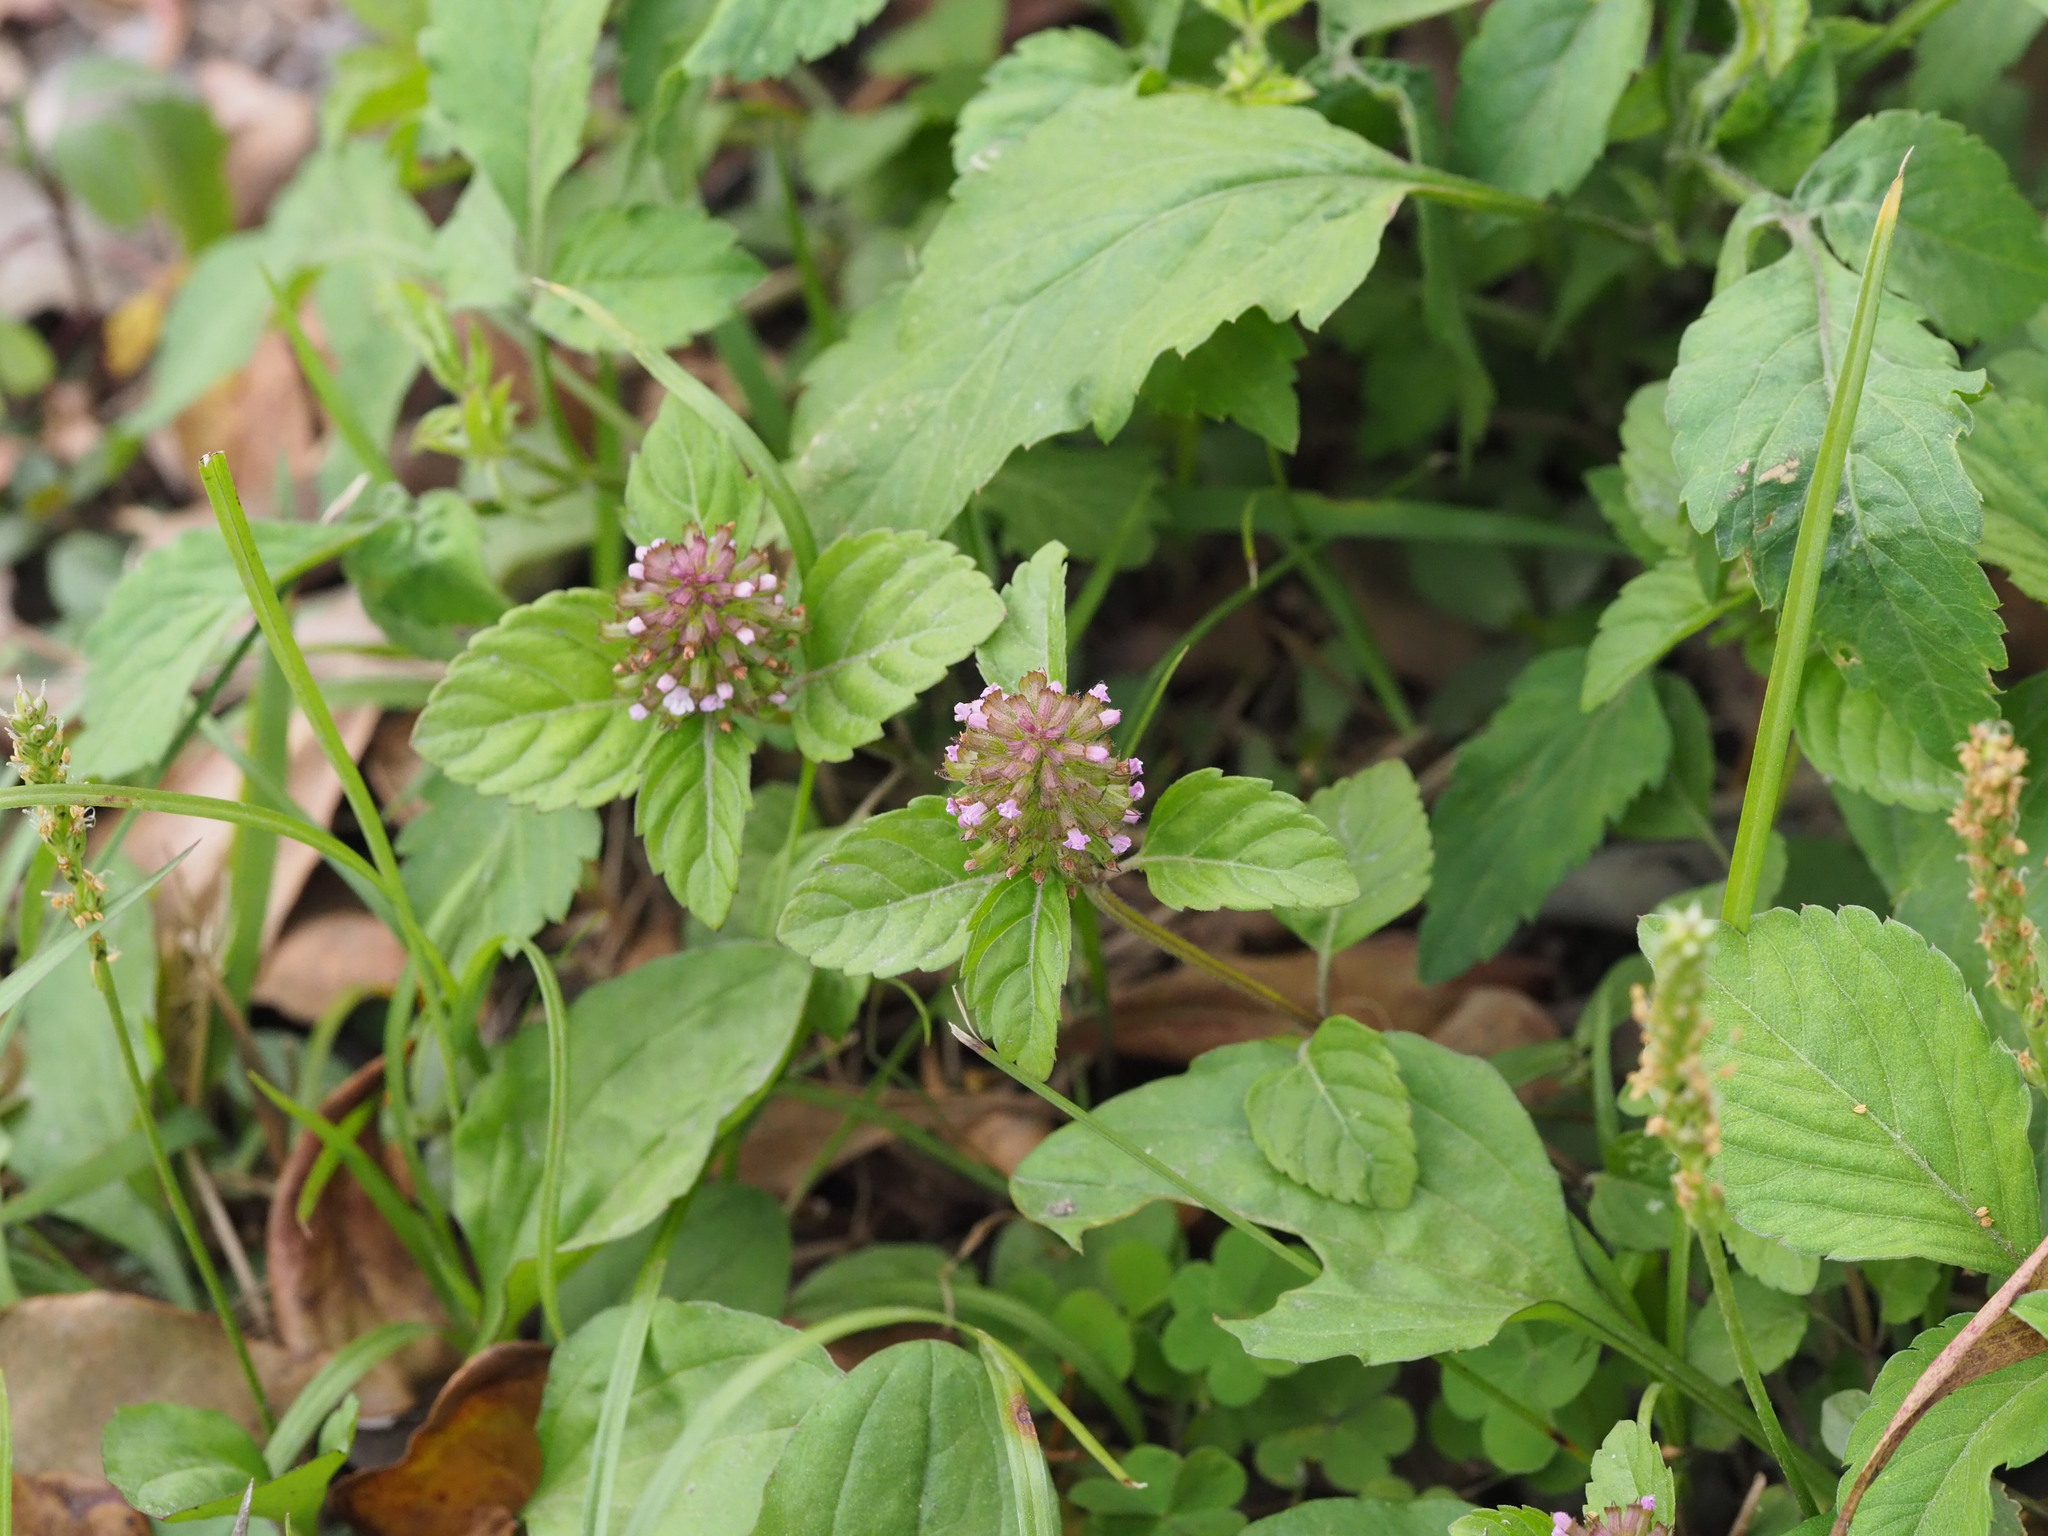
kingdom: Plantae
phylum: Tracheophyta
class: Magnoliopsida
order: Lamiales
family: Lamiaceae
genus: Clinopodium
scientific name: Clinopodium gracile
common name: Slender wild basil
